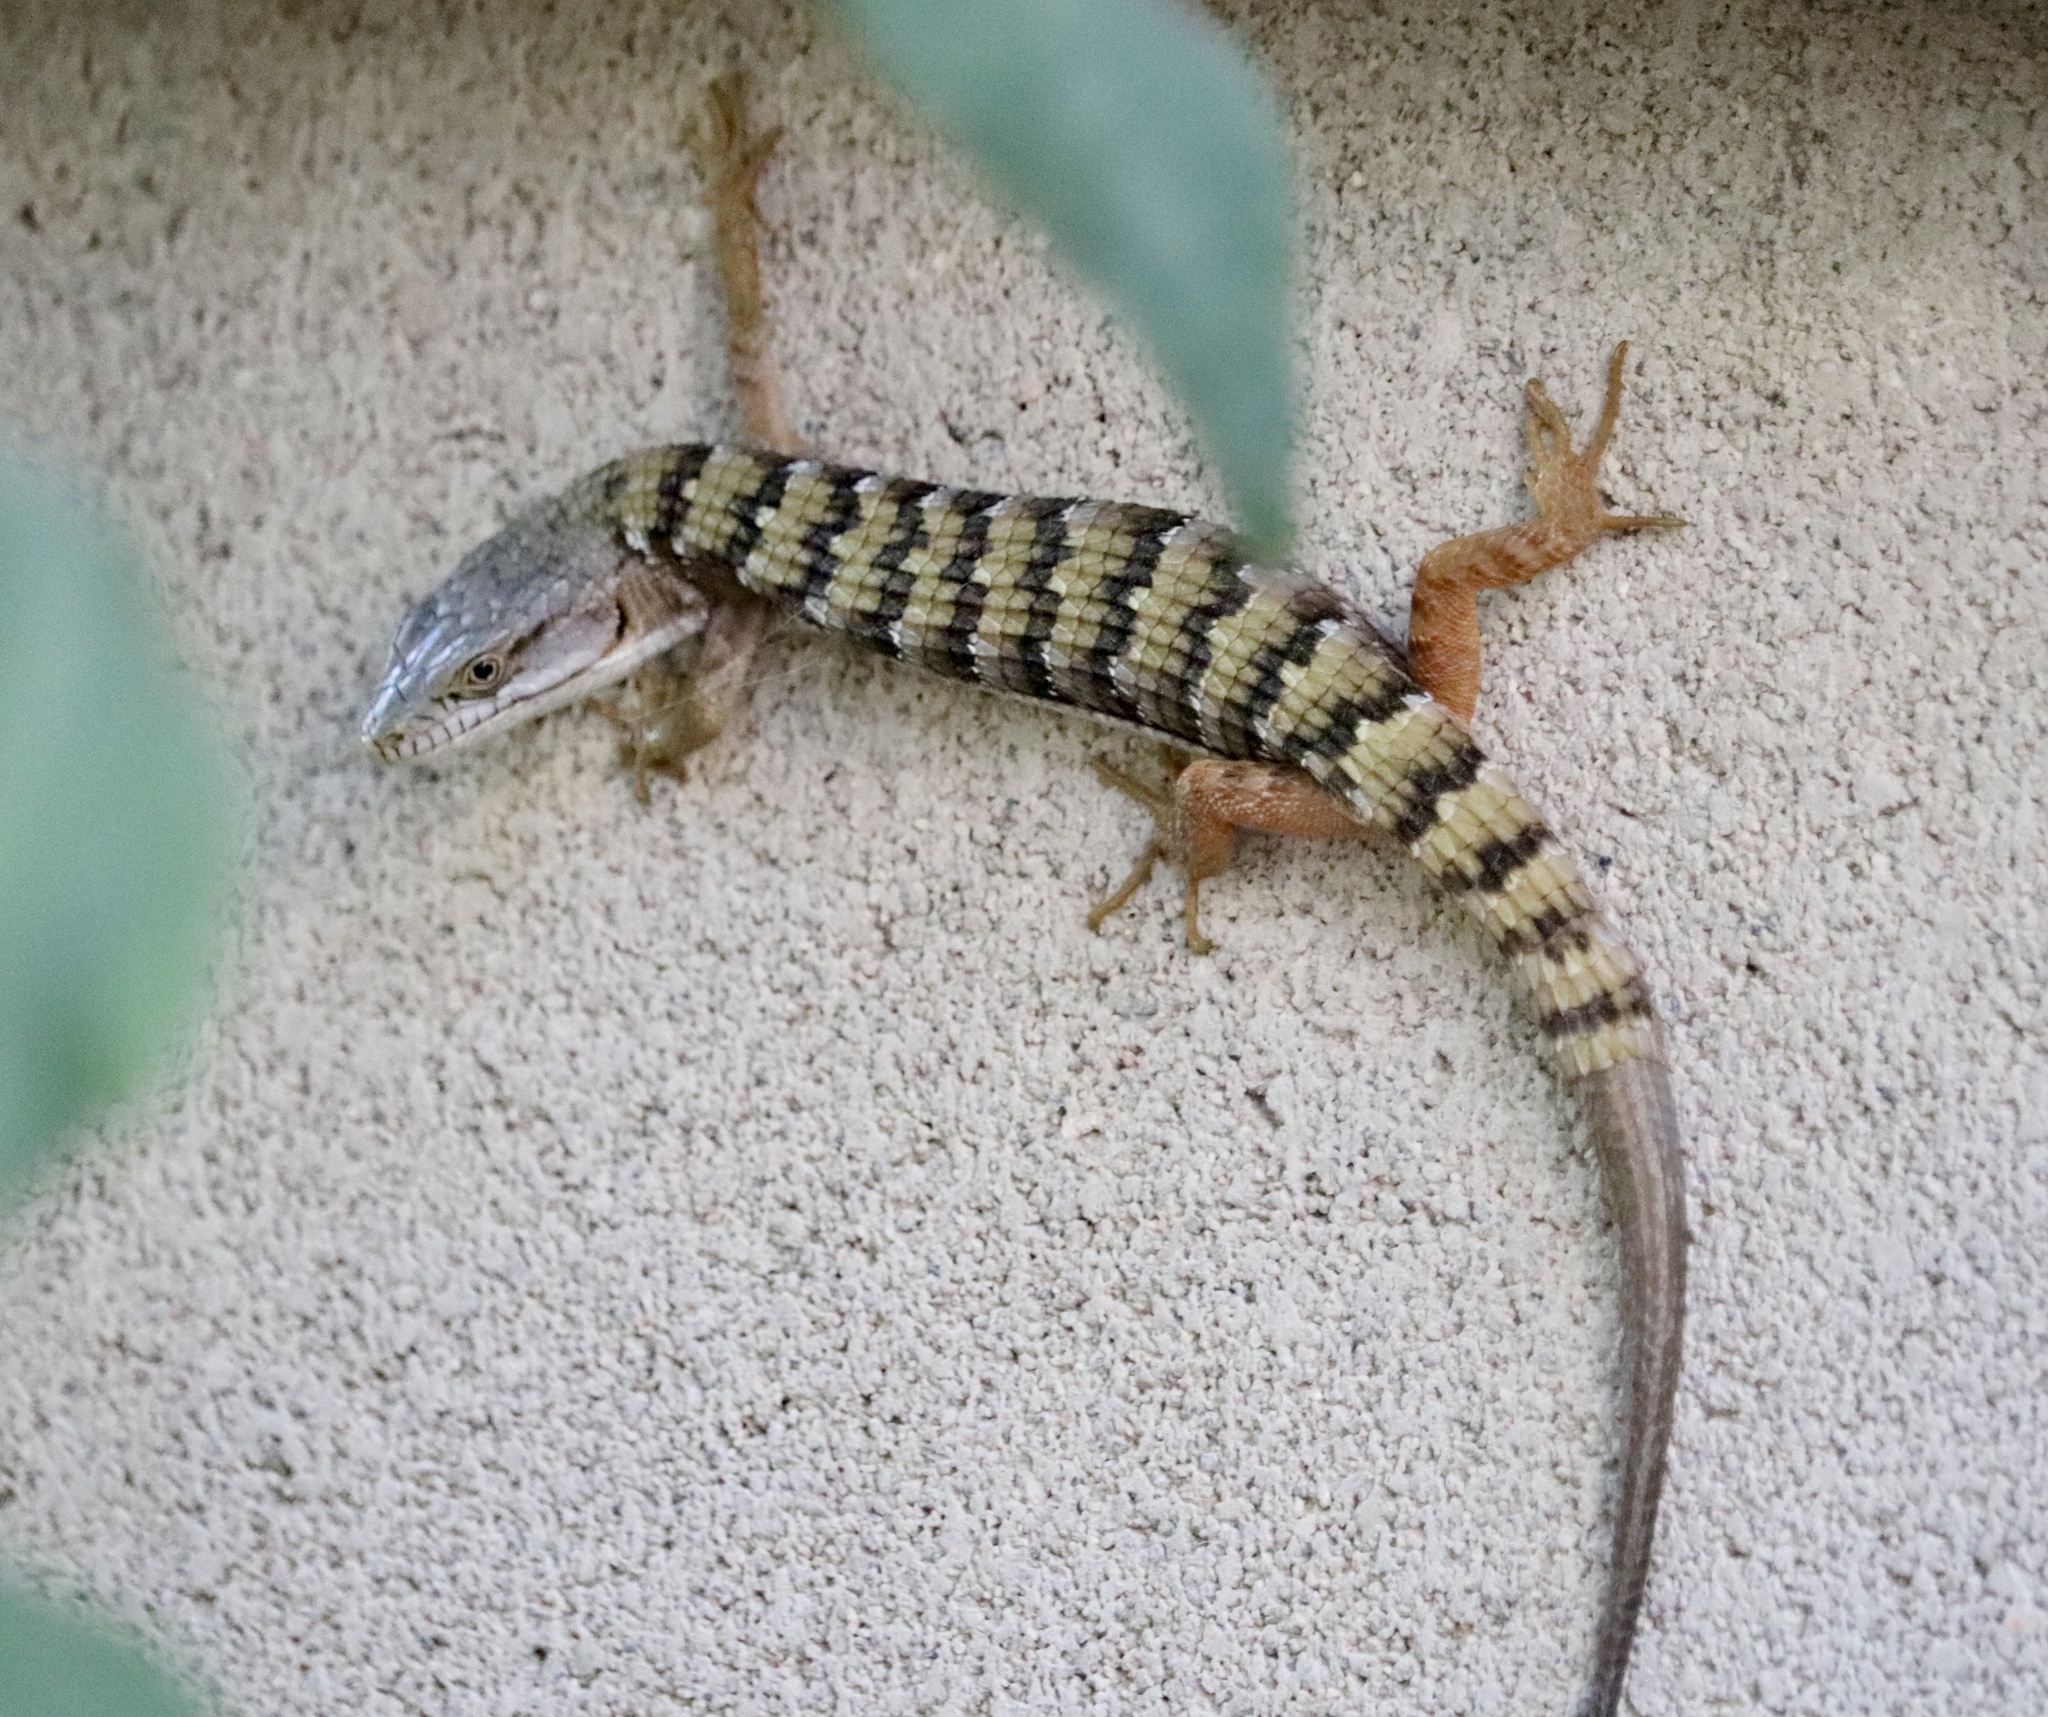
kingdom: Animalia
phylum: Chordata
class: Squamata
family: Anguidae
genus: Elgaria
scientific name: Elgaria multicarinata
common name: Southern alligator lizard
